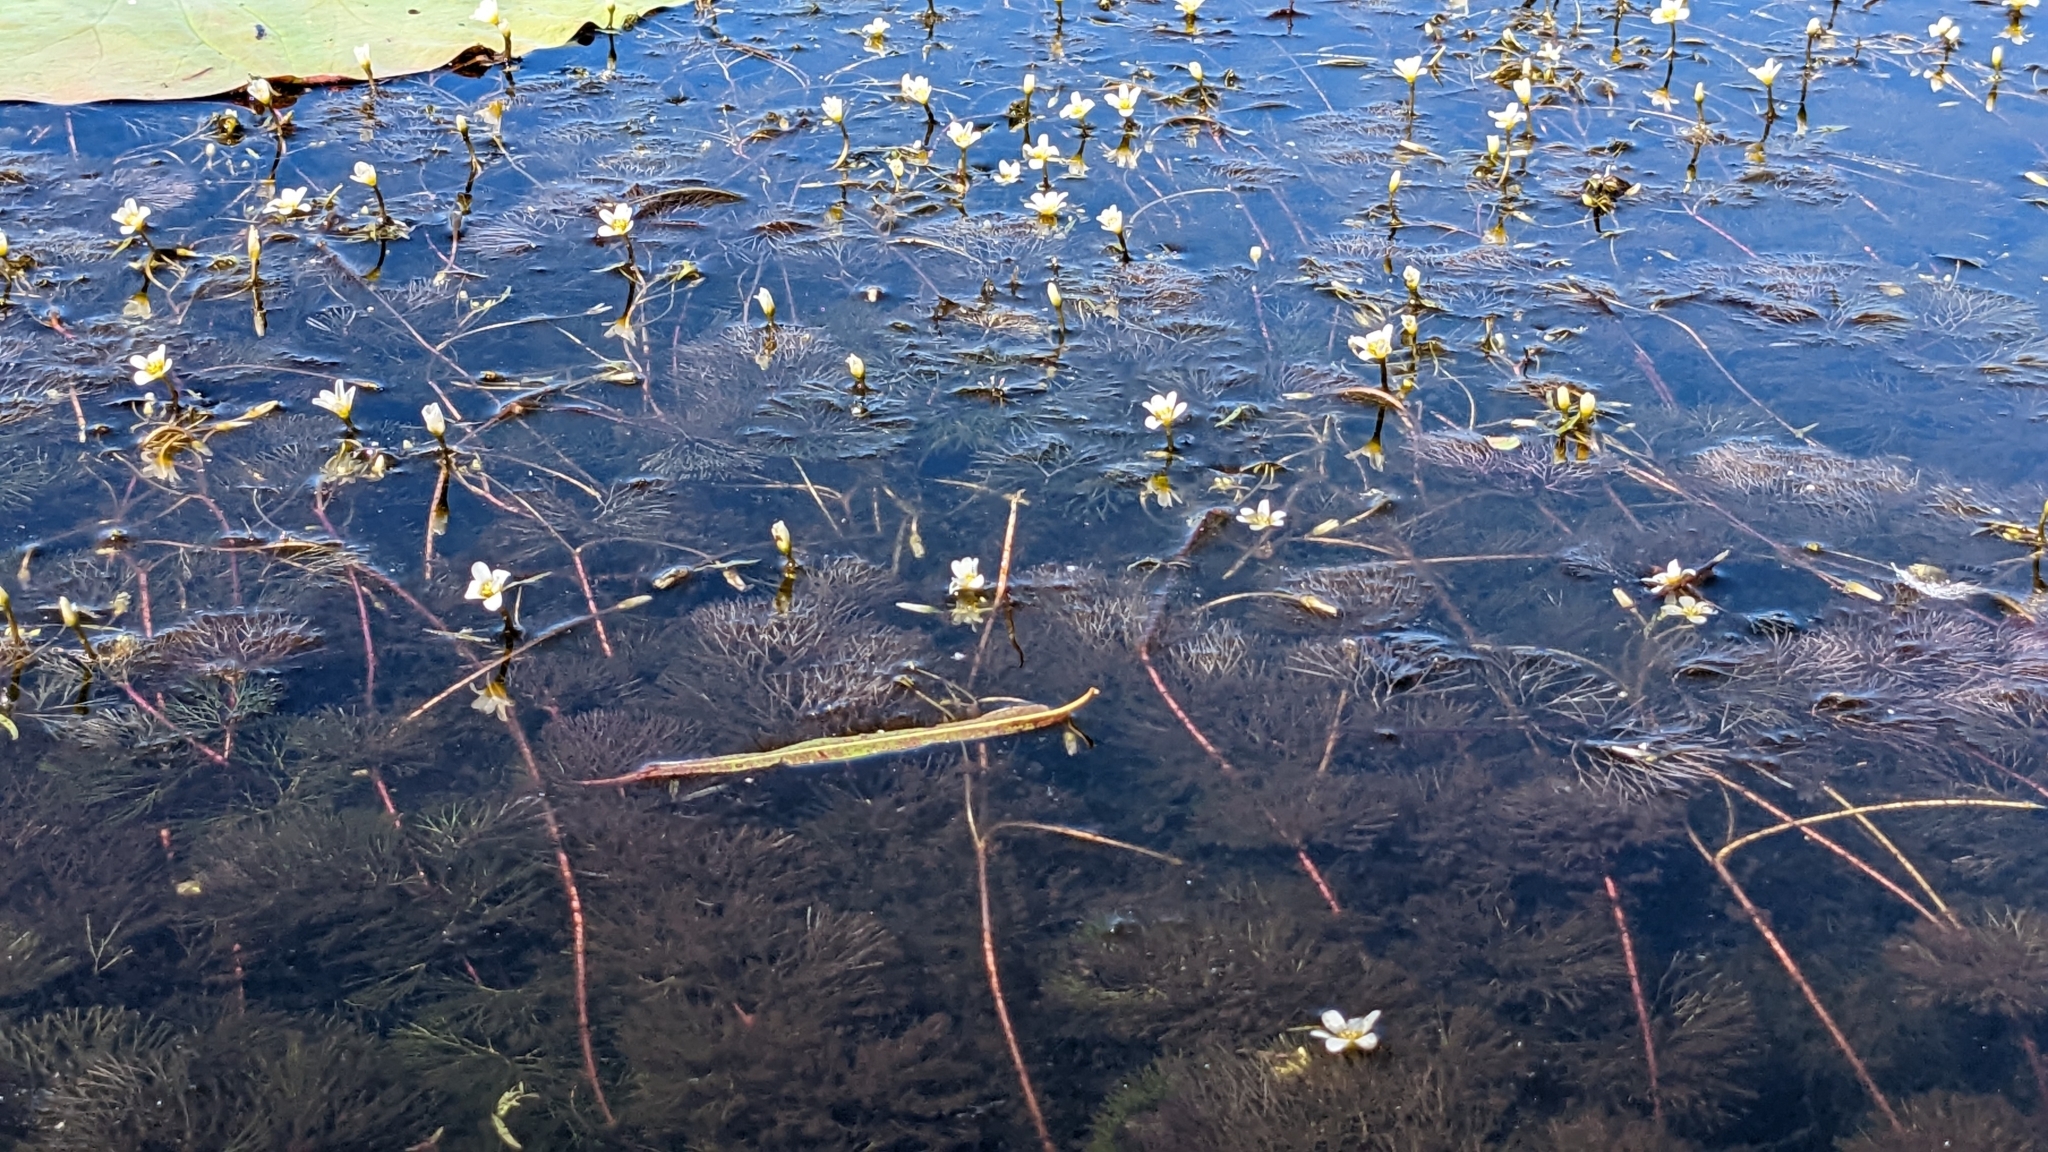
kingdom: Plantae
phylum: Tracheophyta
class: Magnoliopsida
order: Nymphaeales
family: Cabombaceae
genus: Cabomba
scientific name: Cabomba caroliniana
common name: Fanwort
